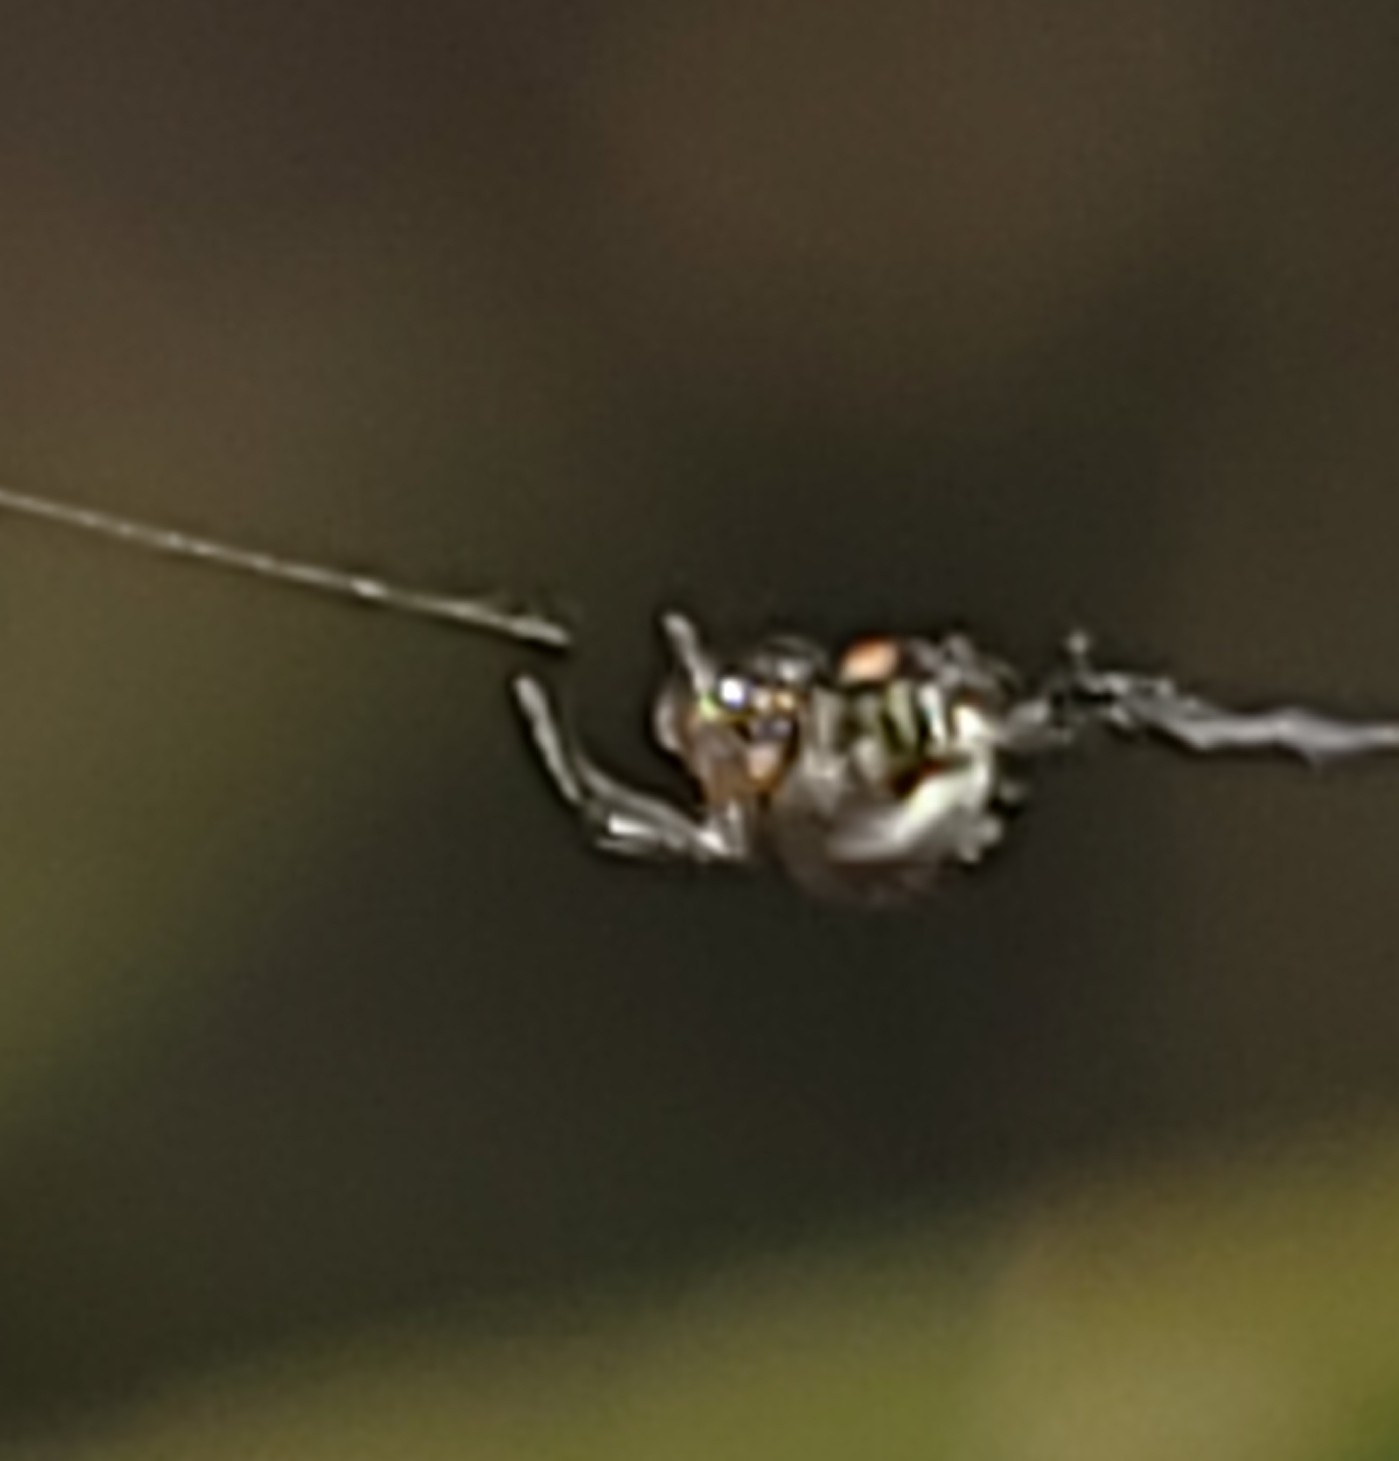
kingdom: Animalia
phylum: Arthropoda
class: Arachnida
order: Araneae
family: Tetragnathidae
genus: Leucauge
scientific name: Leucauge venusta
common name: Longjawed orb weavers
